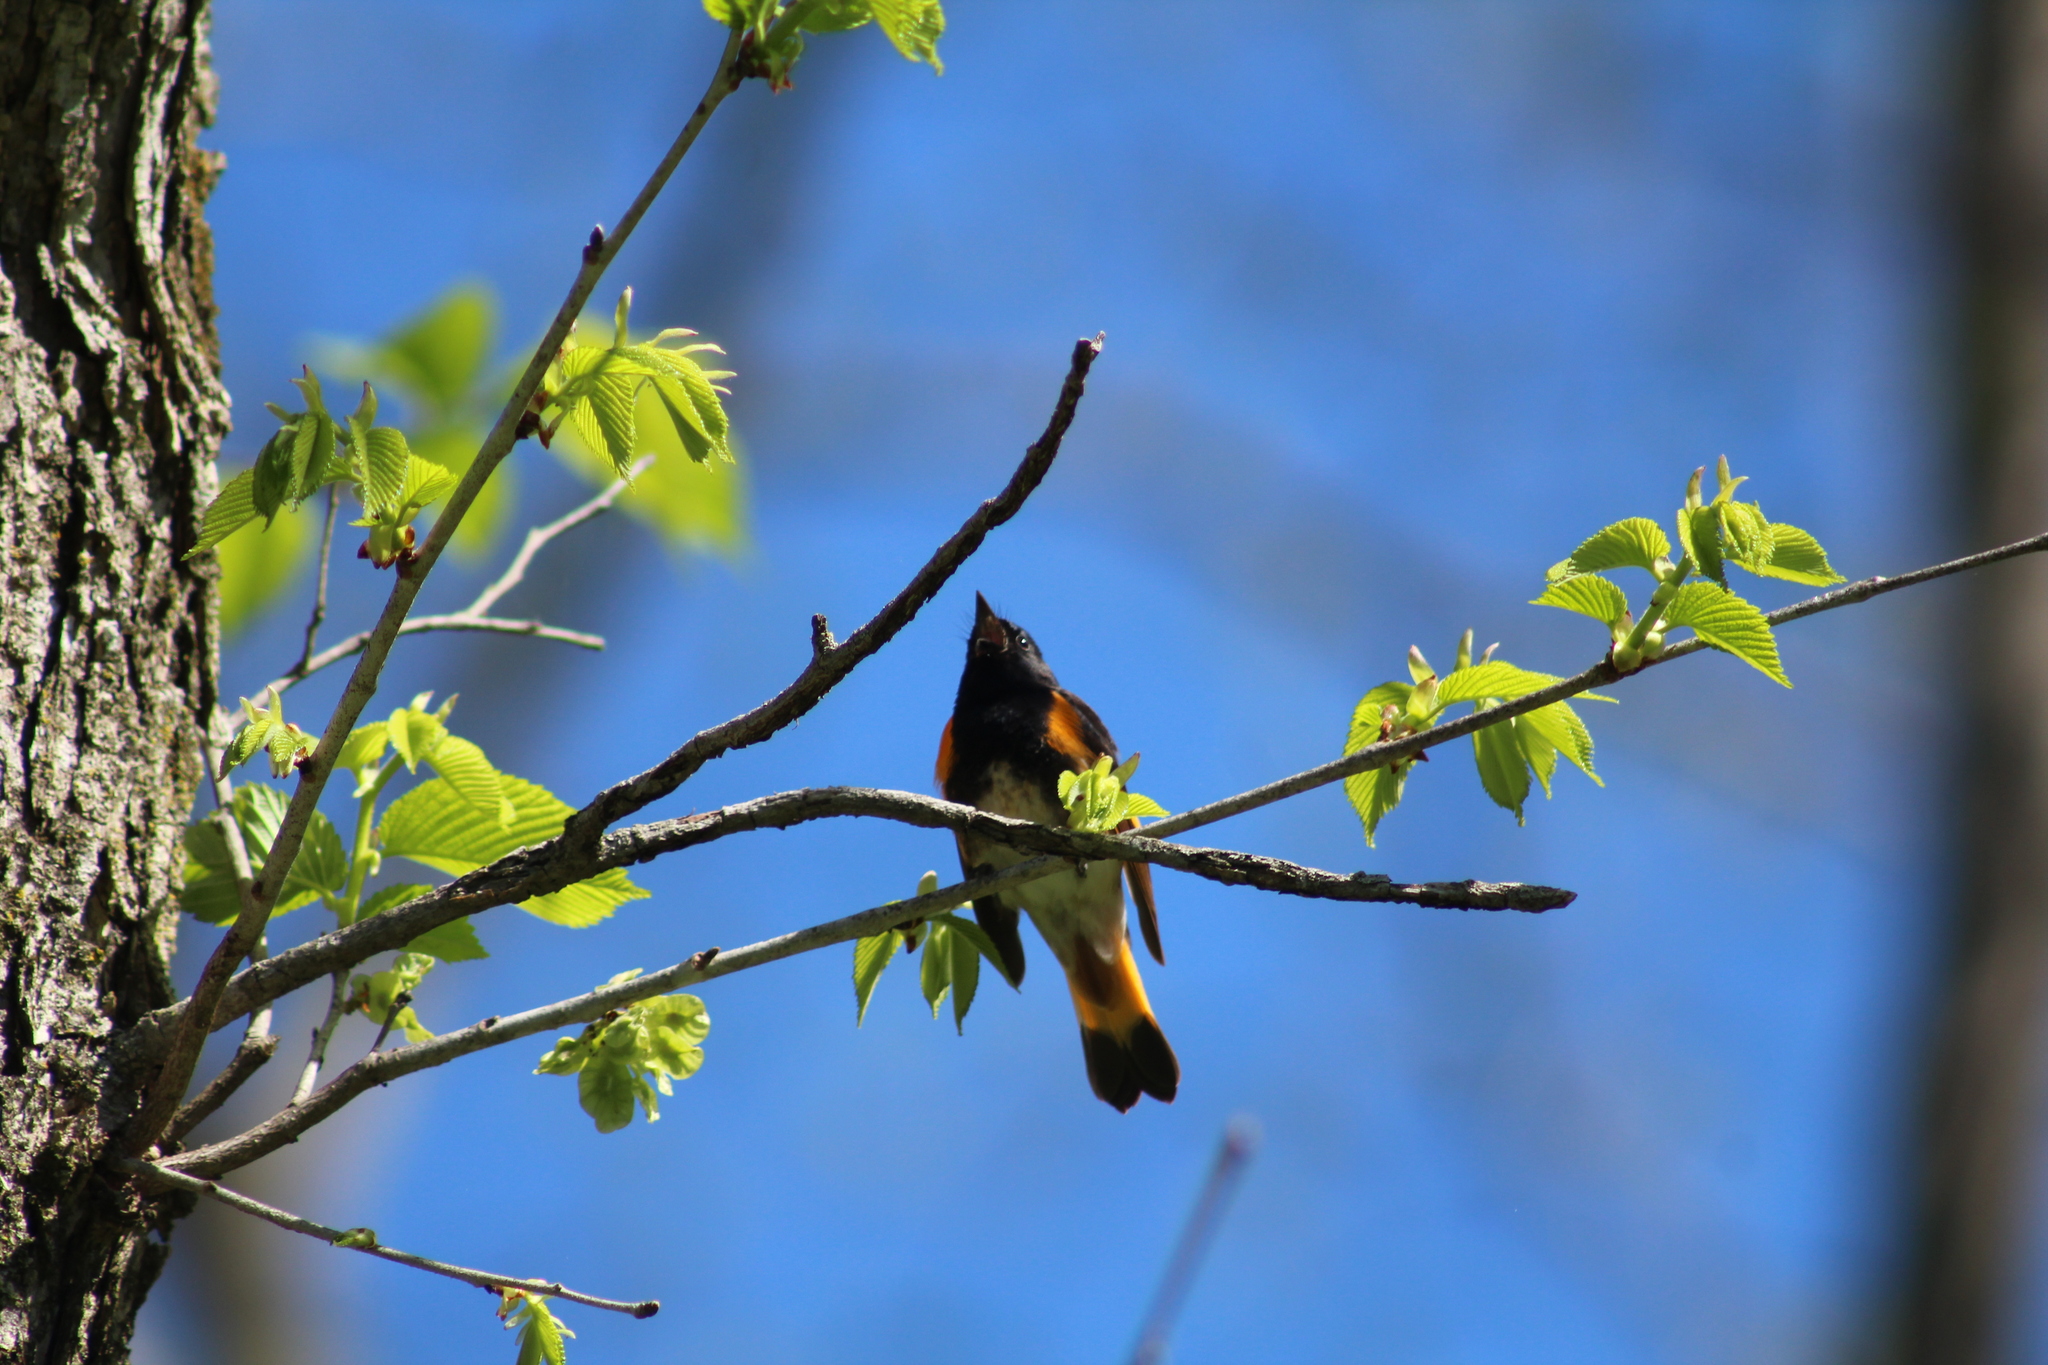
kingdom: Animalia
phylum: Chordata
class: Aves
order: Passeriformes
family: Parulidae
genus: Setophaga
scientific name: Setophaga ruticilla
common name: American redstart
